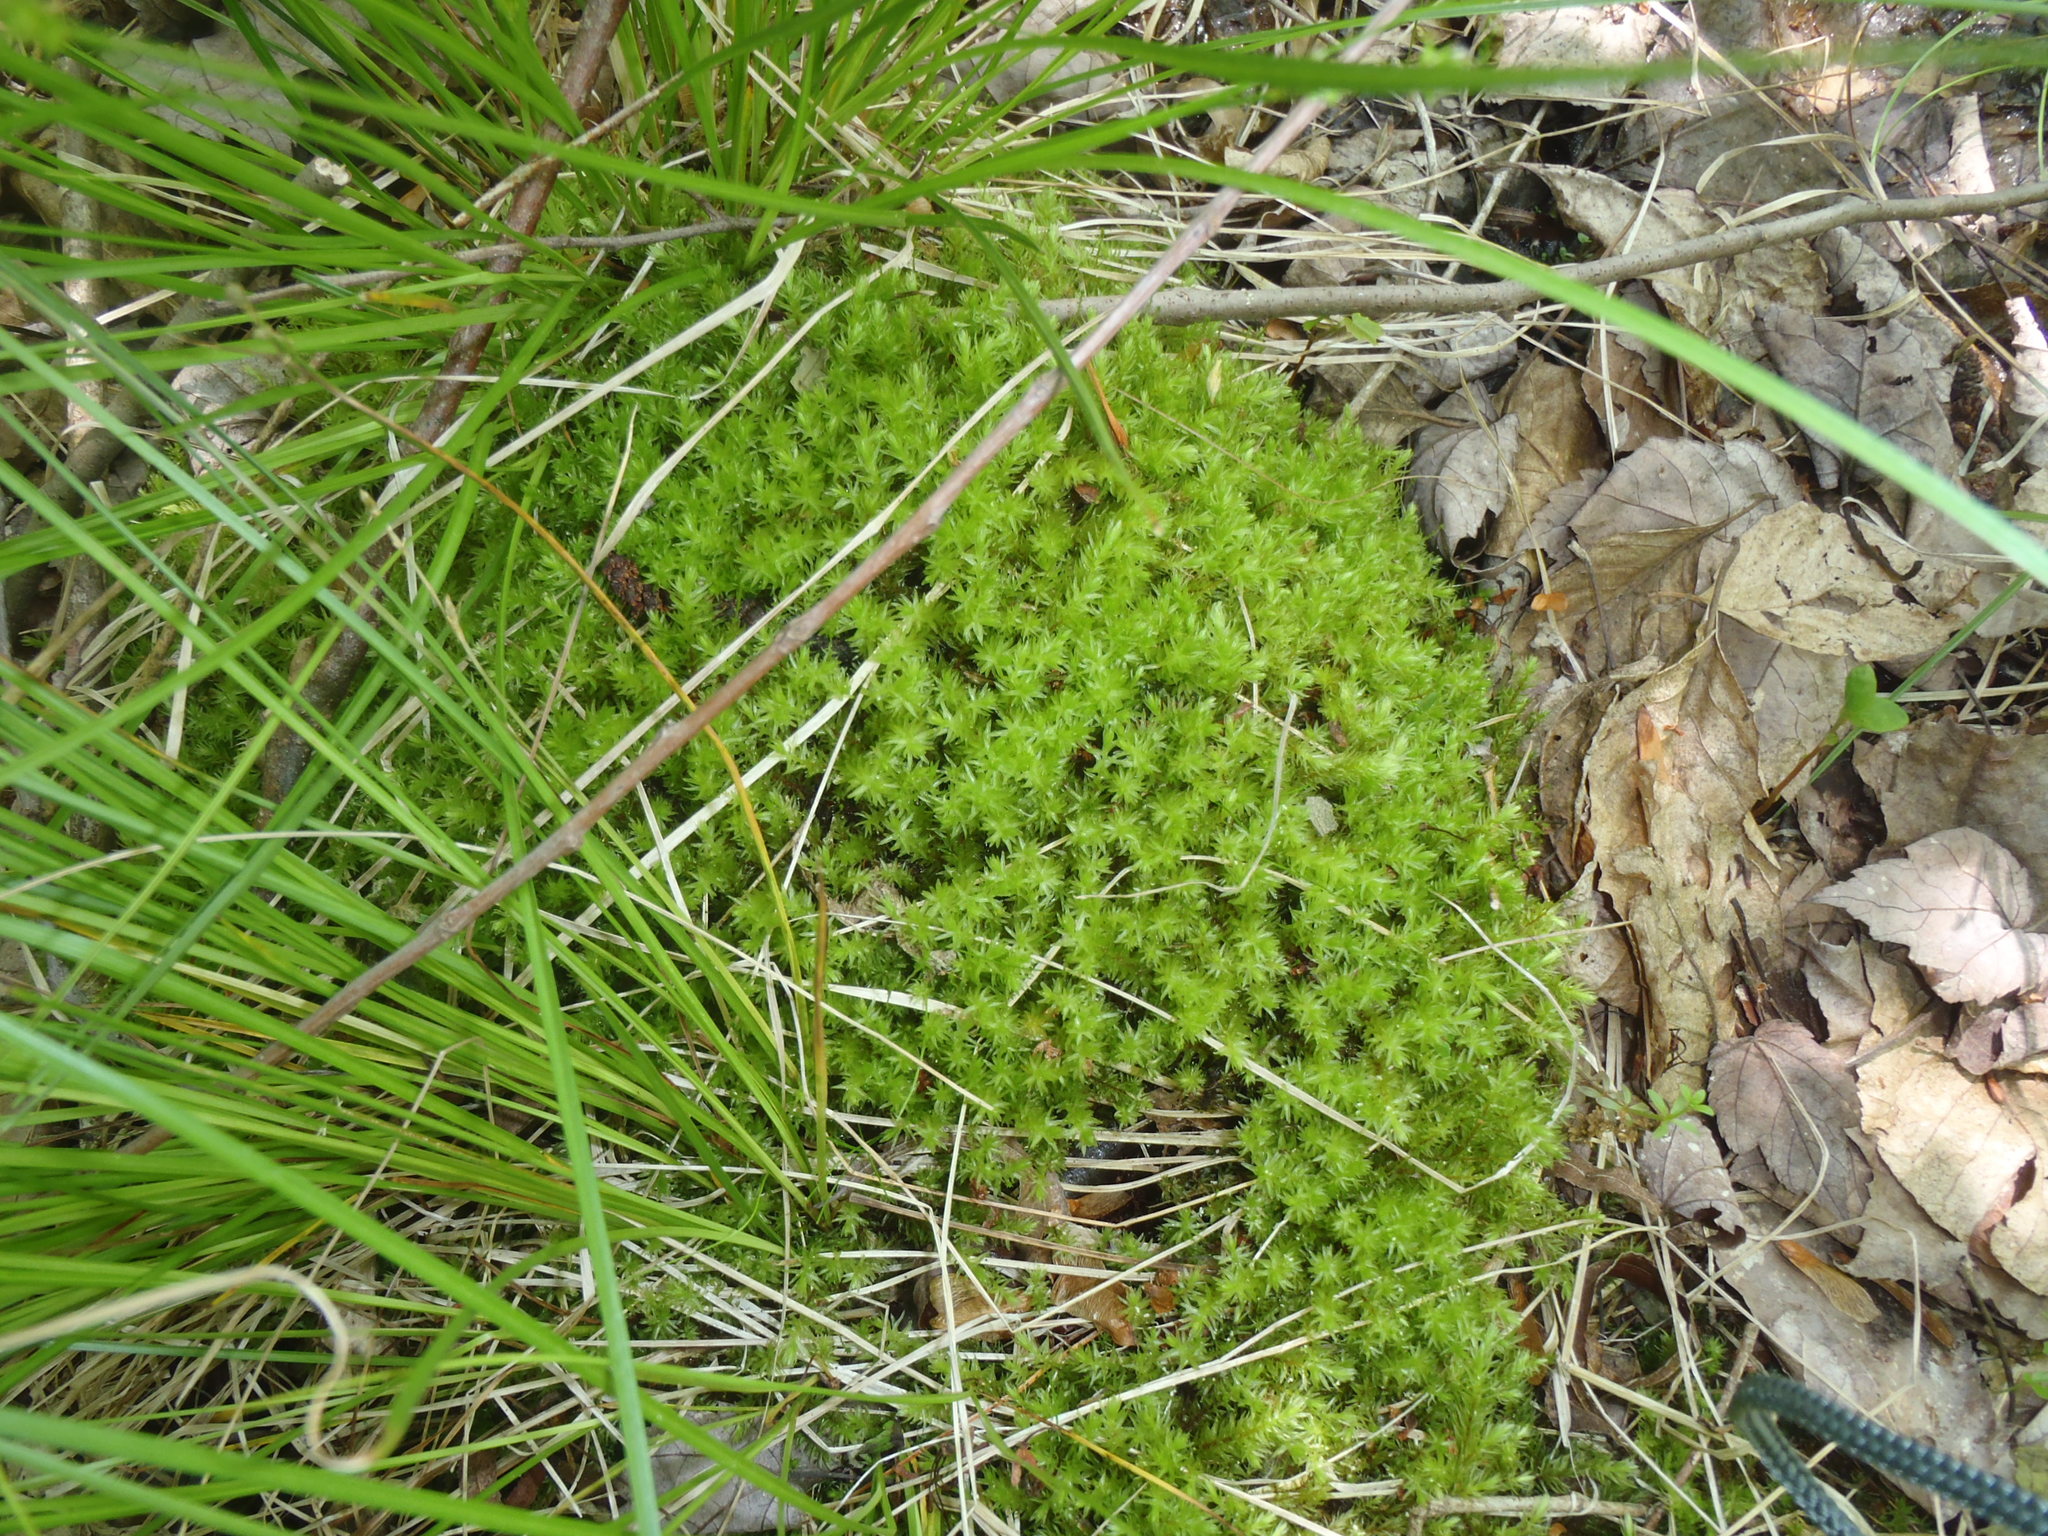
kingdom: Plantae
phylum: Bryophyta
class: Bryopsida
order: Aulacomniales
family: Aulacomniaceae
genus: Aulacomnium
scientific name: Aulacomnium palustre
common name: Bog groove-moss
